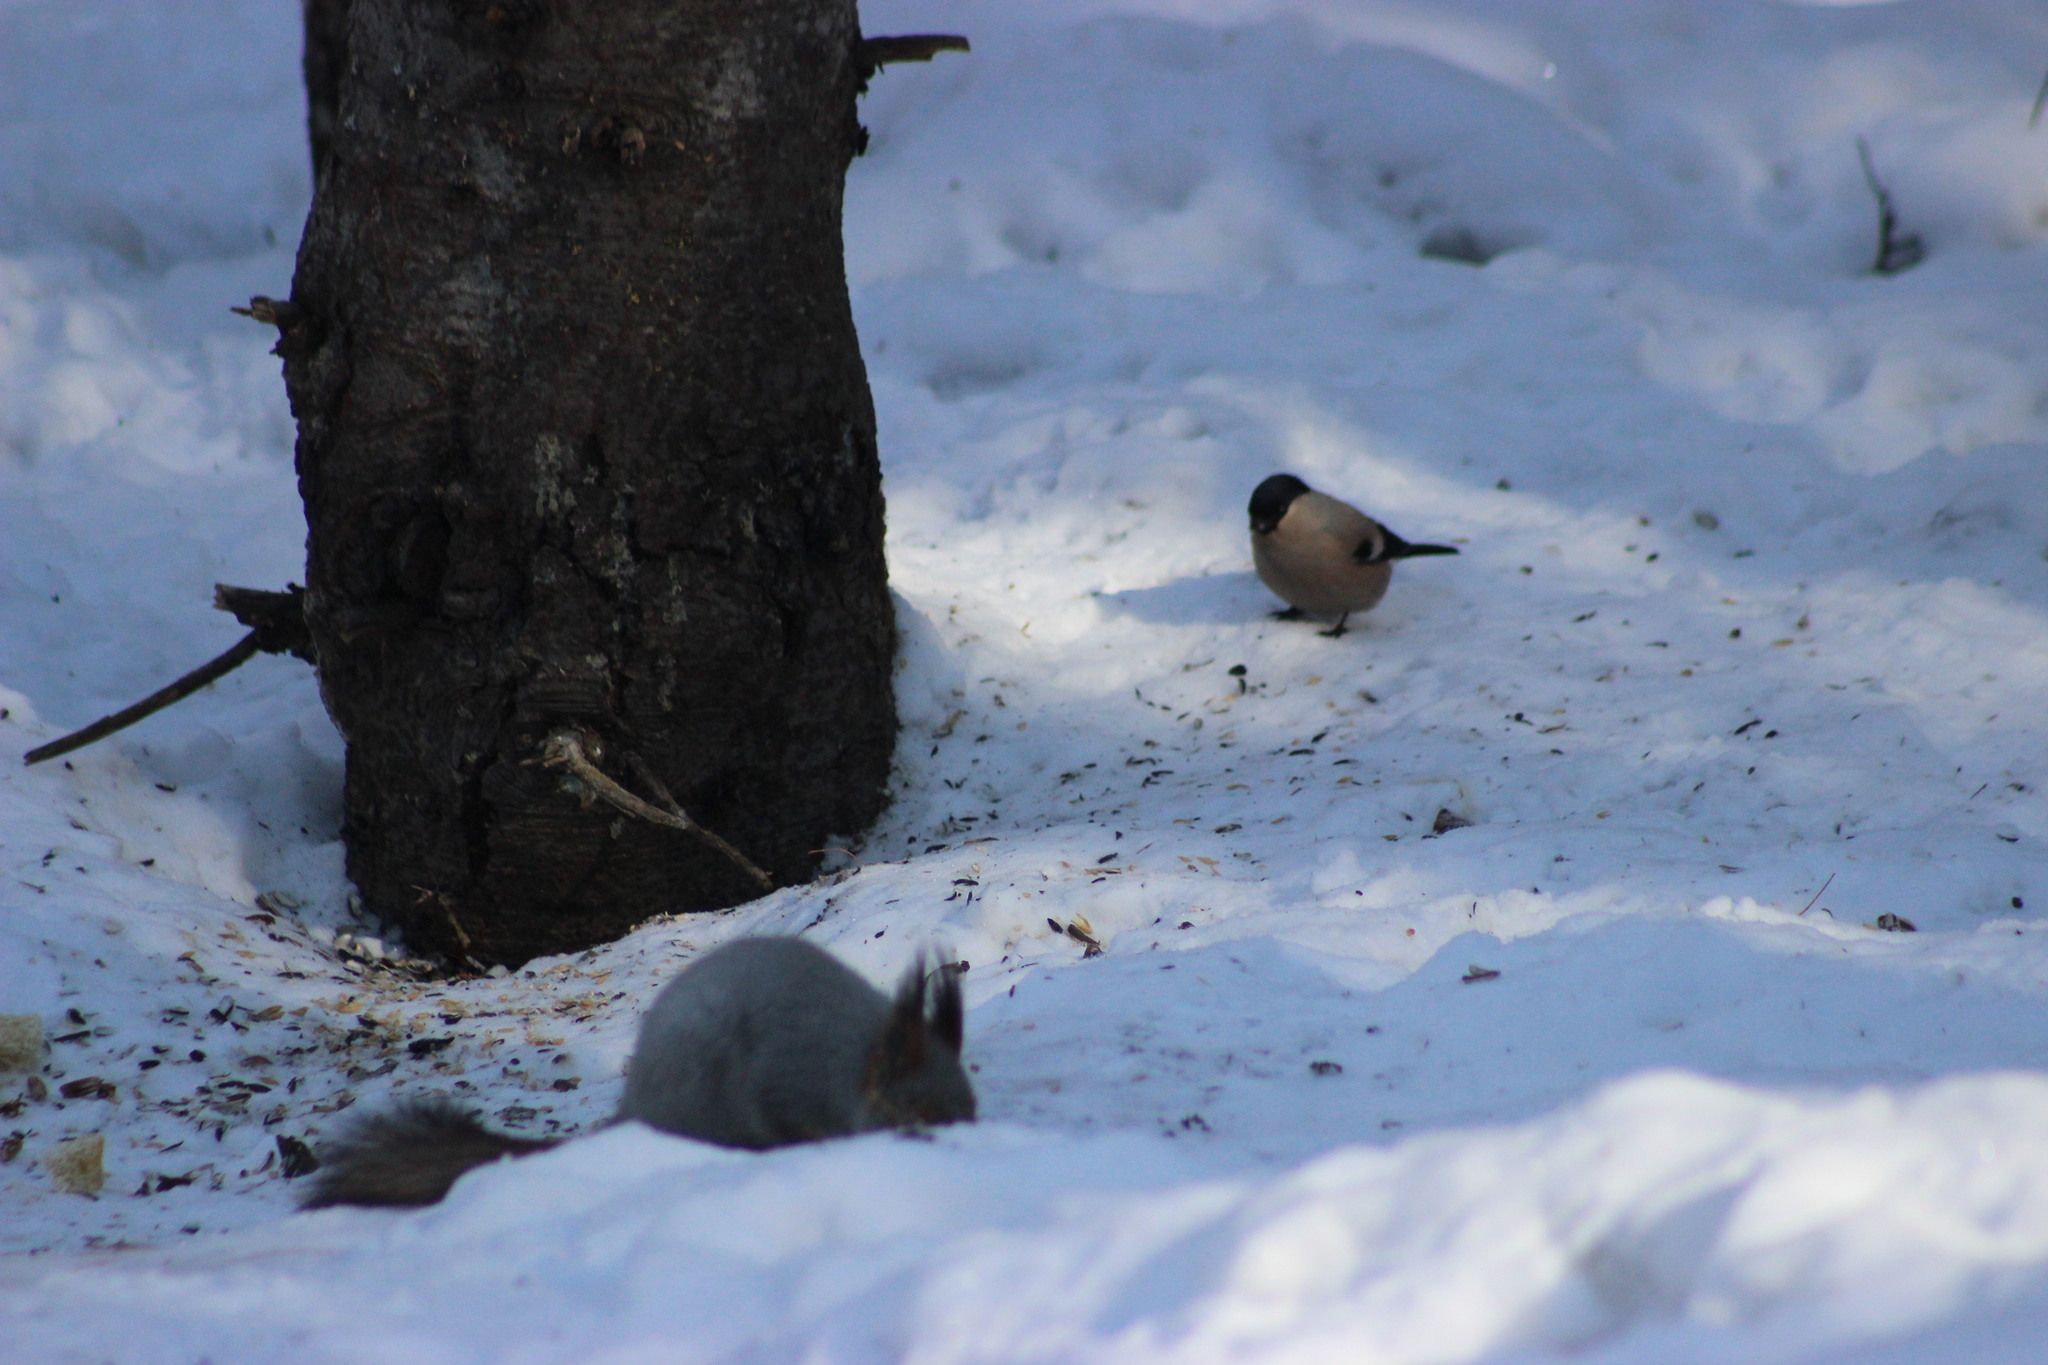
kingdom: Animalia
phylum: Chordata
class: Aves
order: Passeriformes
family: Fringillidae
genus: Pyrrhula
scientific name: Pyrrhula pyrrhula
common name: Eurasian bullfinch
